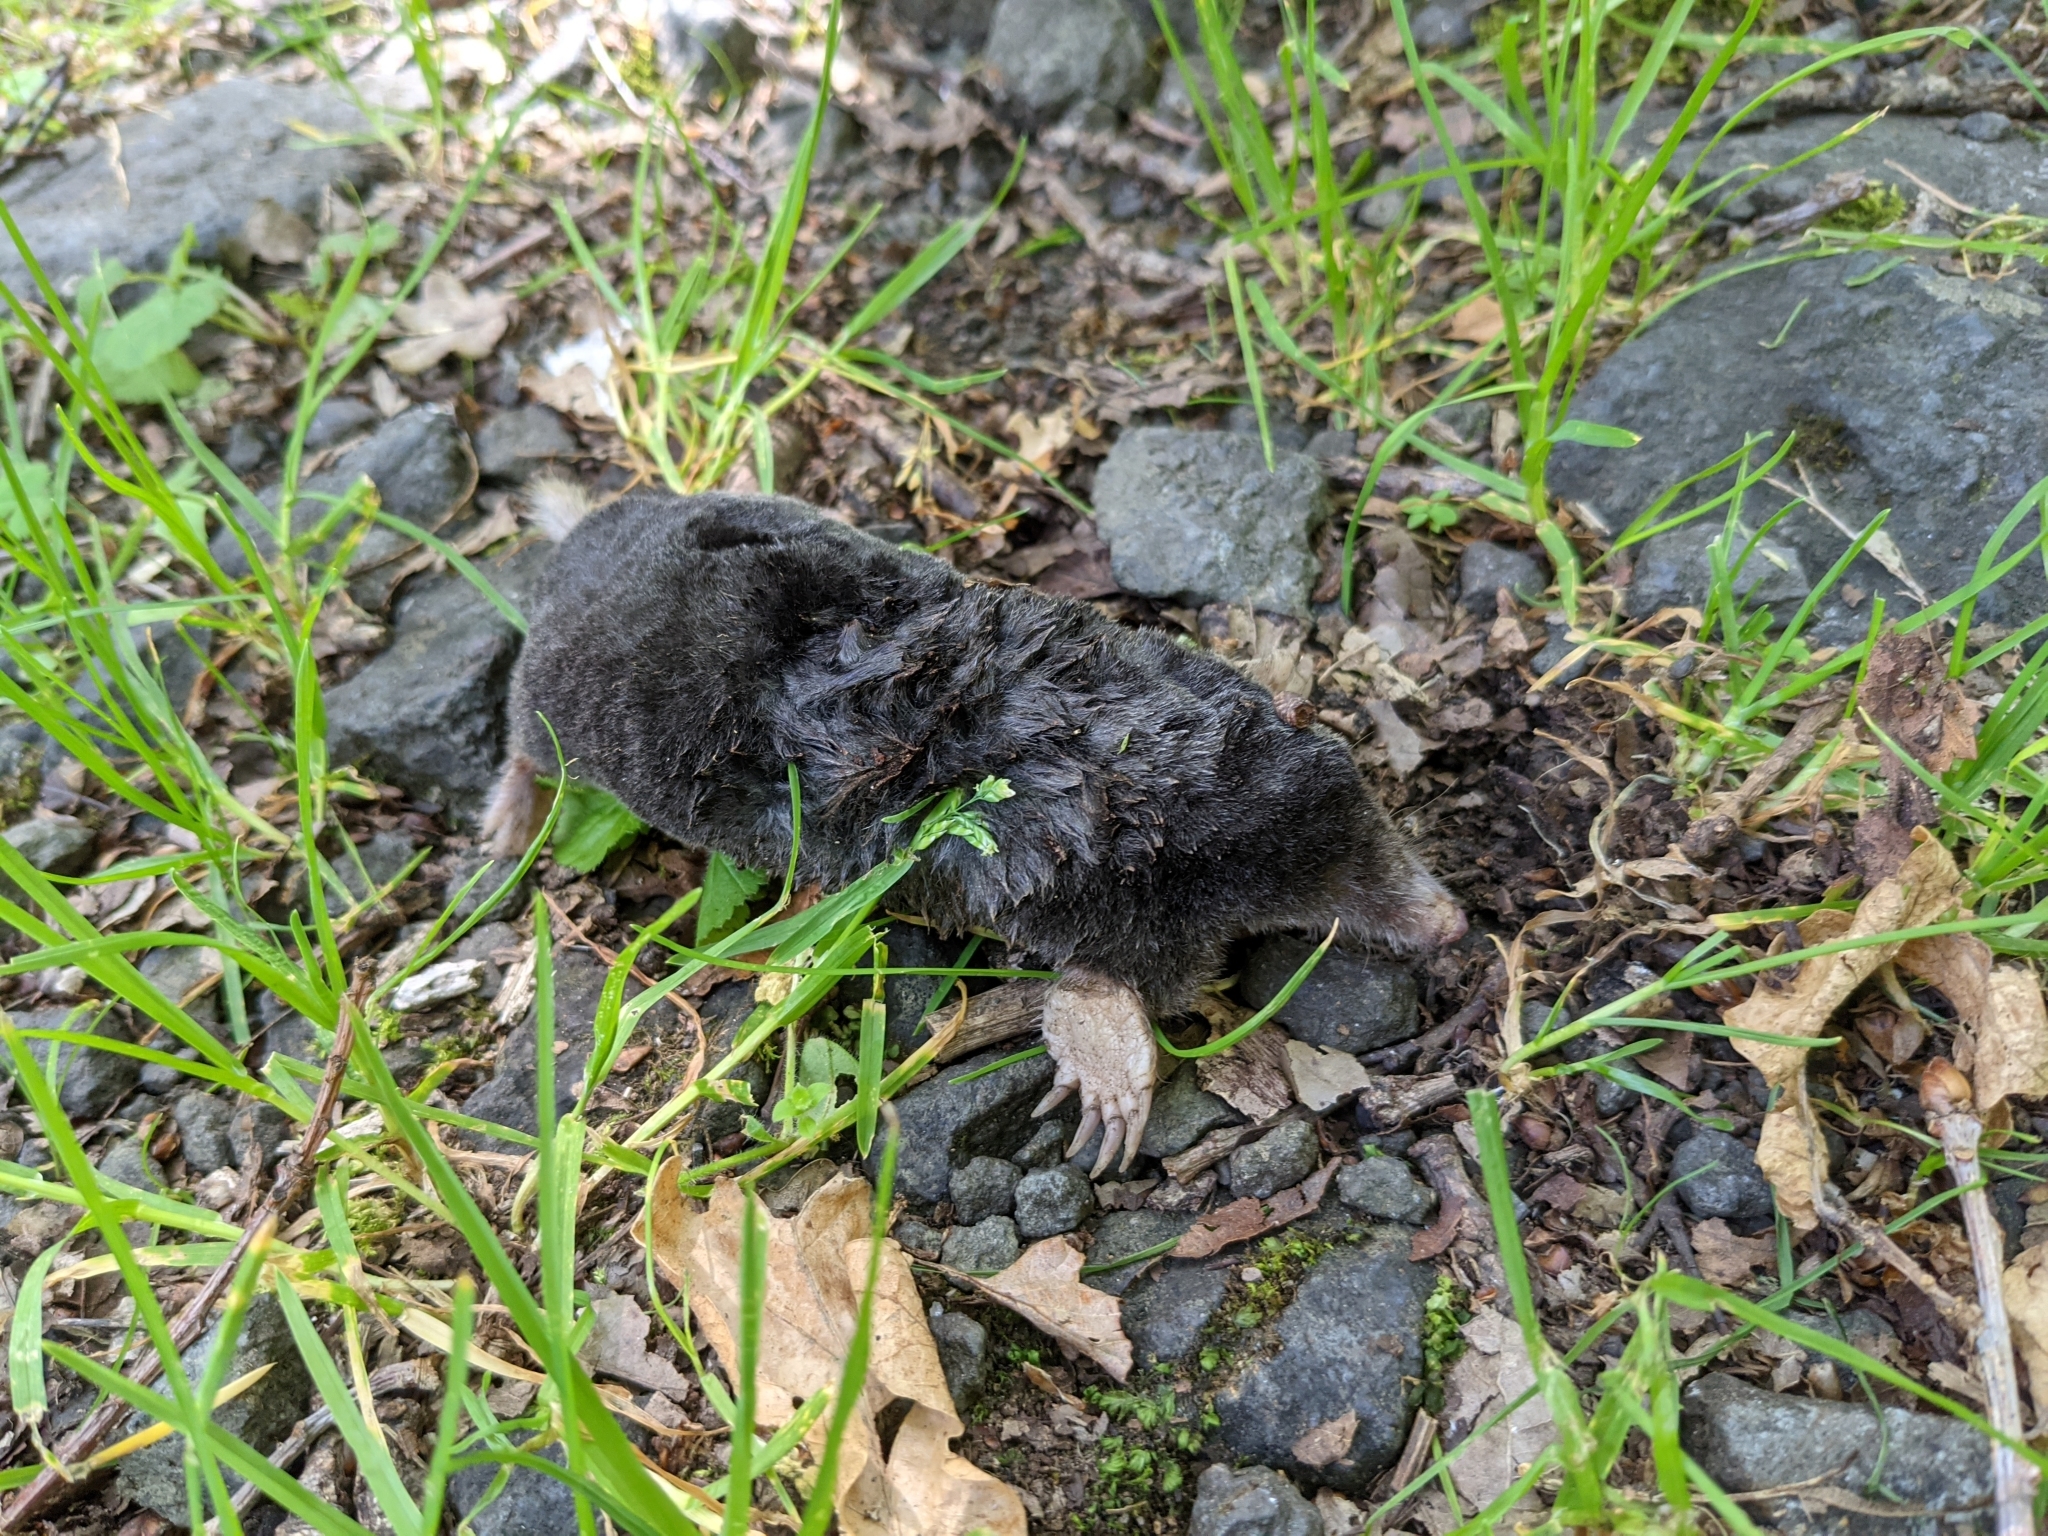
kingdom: Animalia
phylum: Chordata
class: Mammalia
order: Soricomorpha
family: Talpidae
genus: Talpa
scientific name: Talpa europaea
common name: European mole
